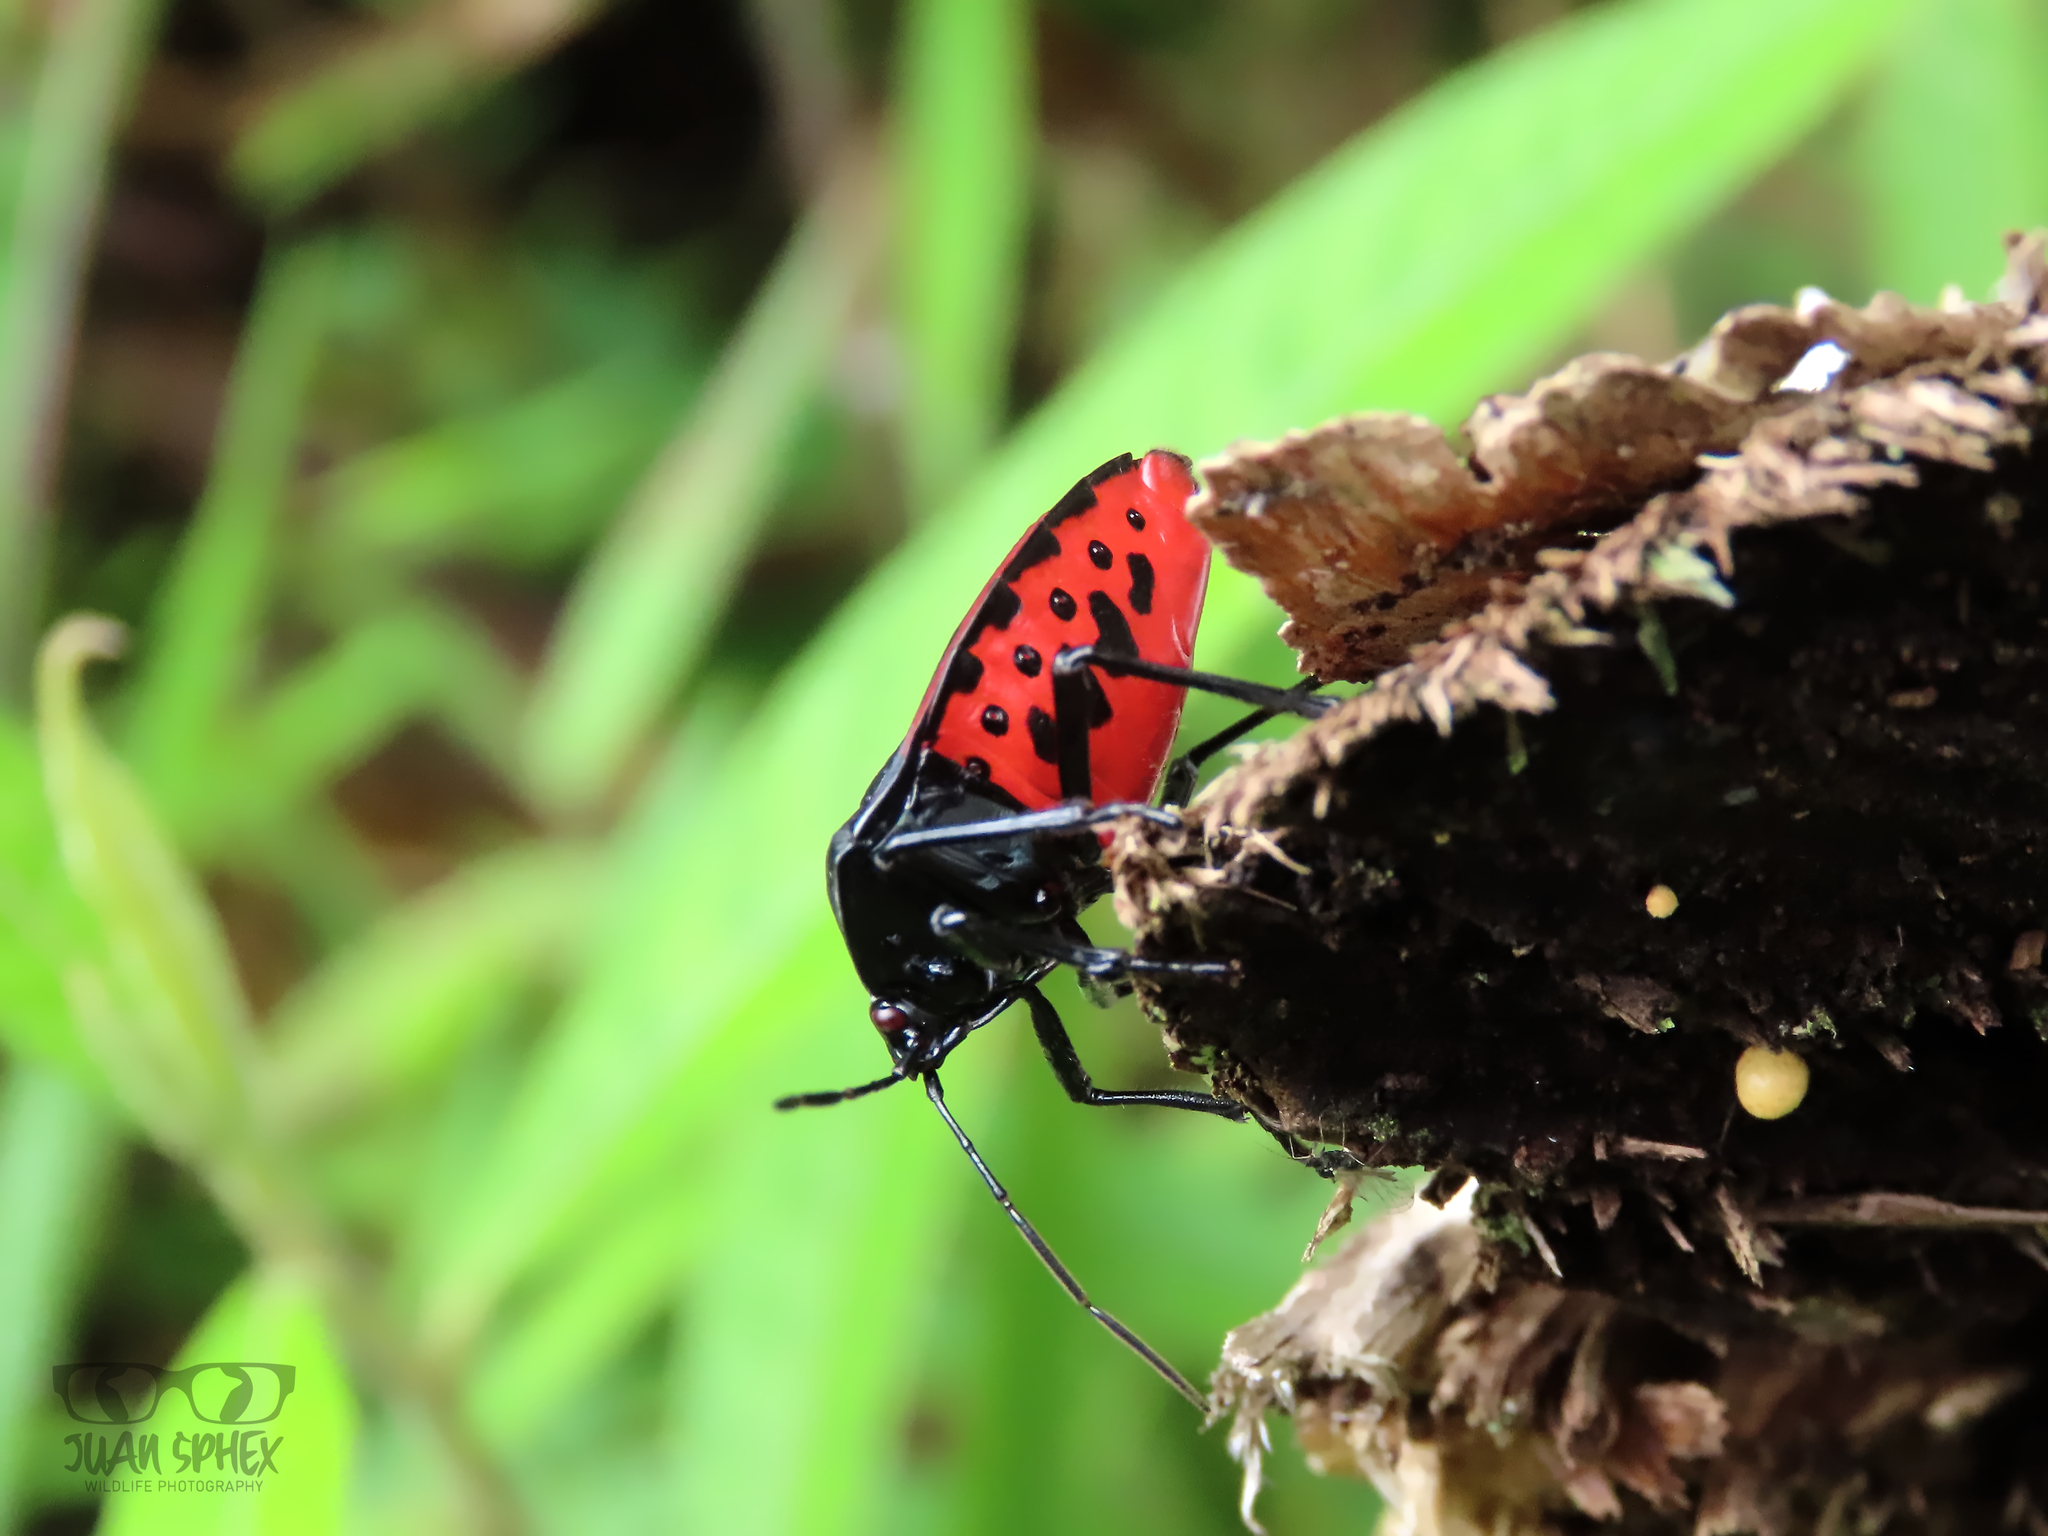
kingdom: Animalia
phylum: Arthropoda
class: Insecta
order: Hemiptera
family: Pentatomidae
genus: Brachystethus
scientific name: Brachystethus tricolor
